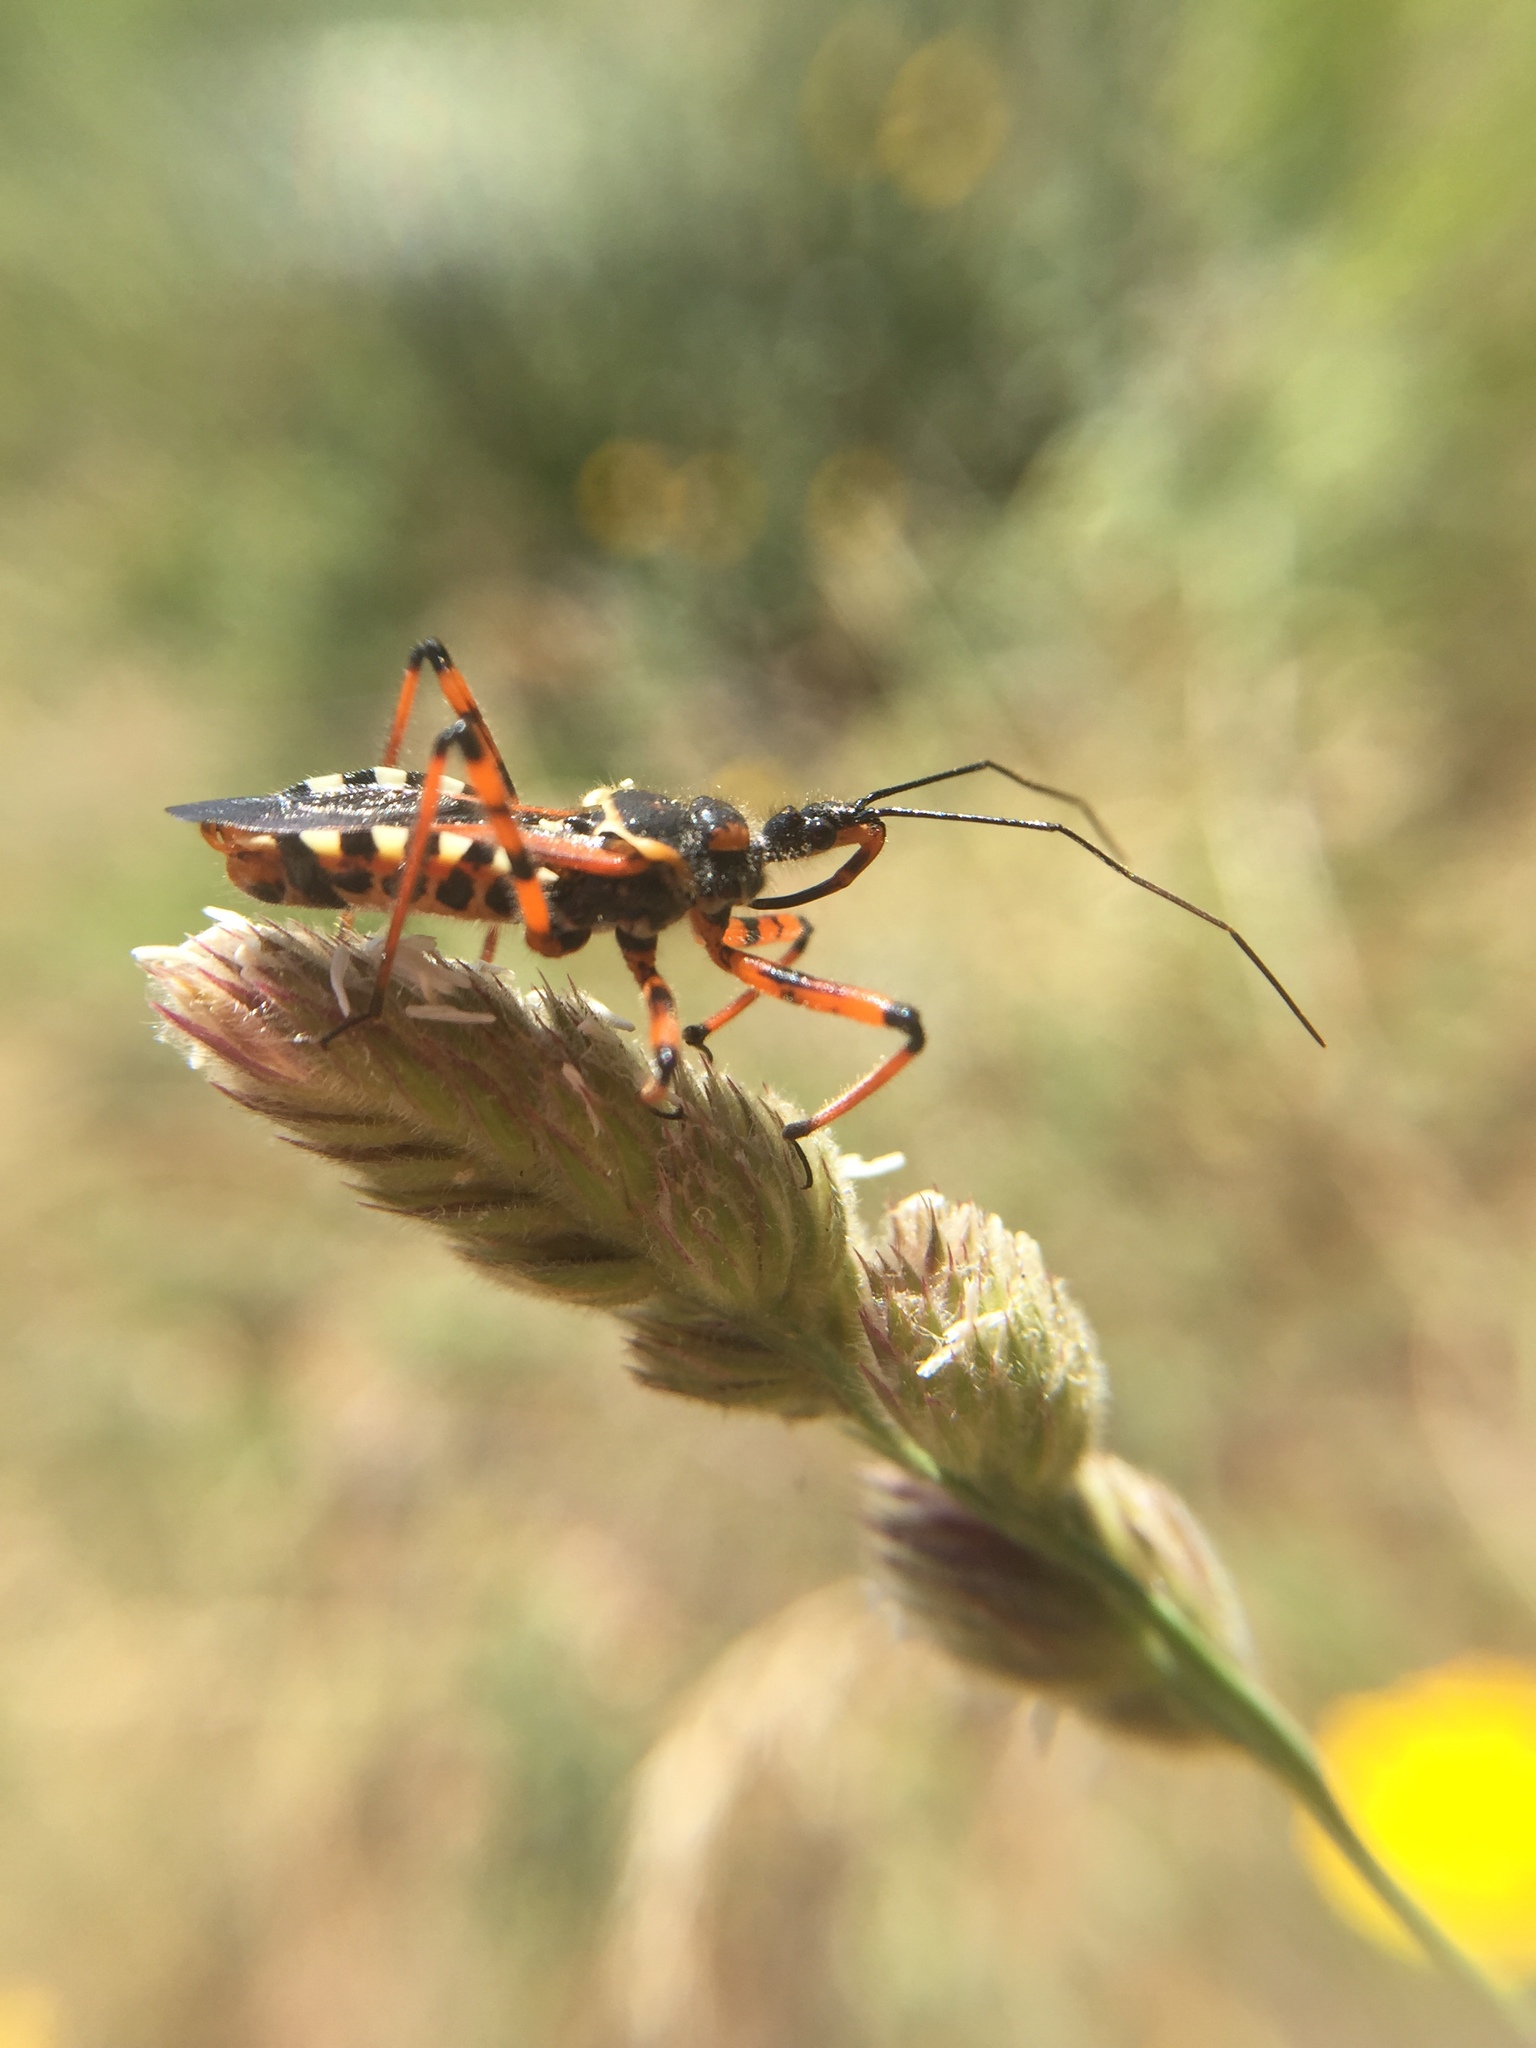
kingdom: Animalia
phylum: Arthropoda
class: Insecta
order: Hemiptera
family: Reduviidae
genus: Rhynocoris
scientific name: Rhynocoris punctiventris
